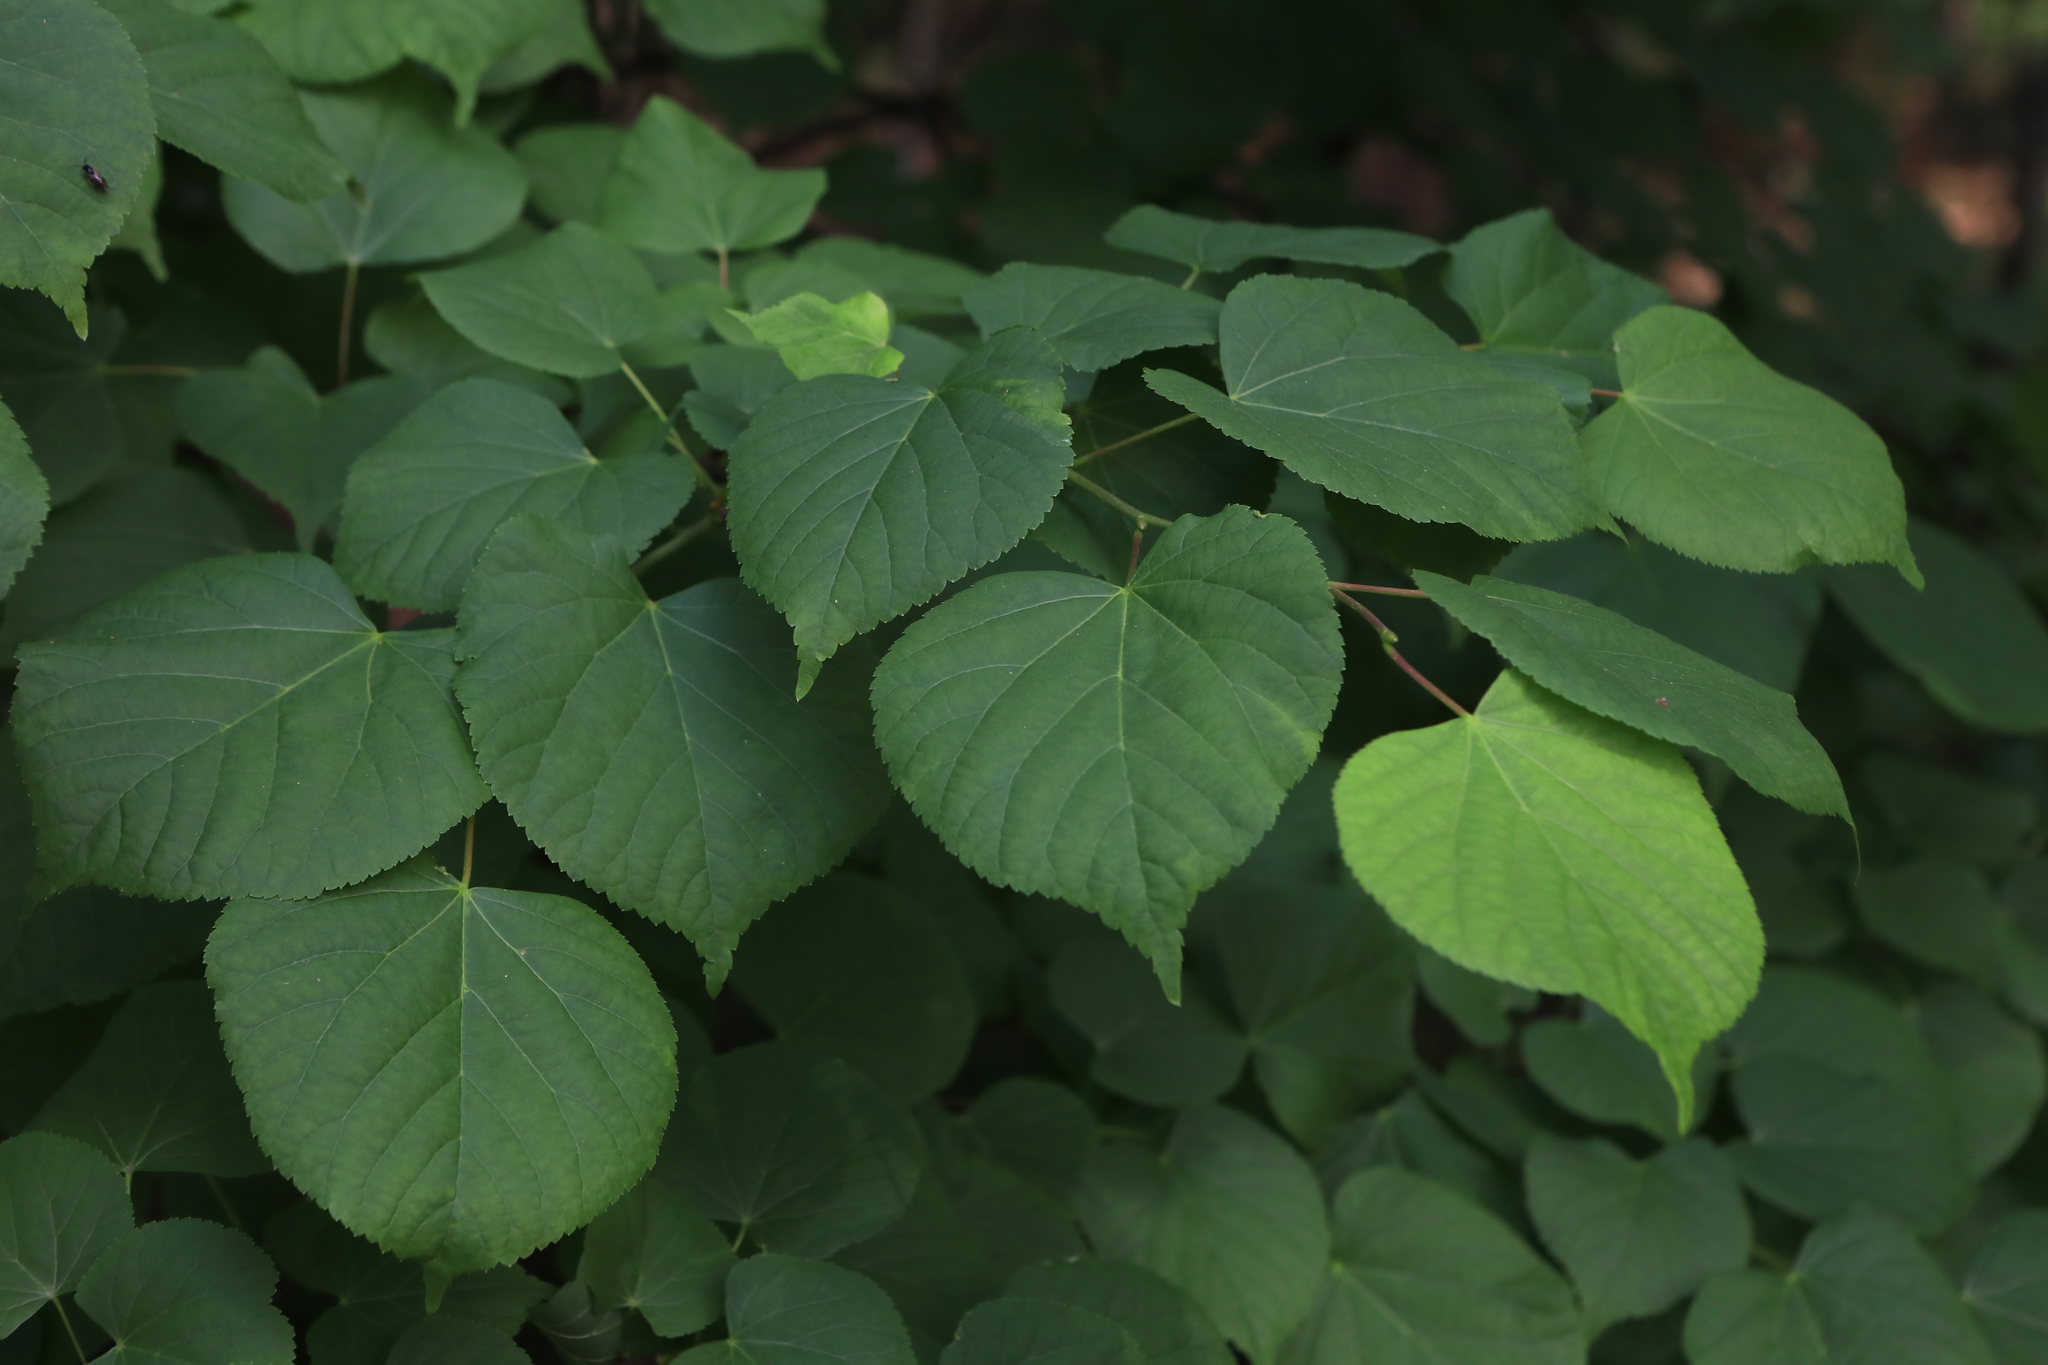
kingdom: Plantae
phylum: Tracheophyta
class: Magnoliopsida
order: Malvales
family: Malvaceae
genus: Tilia
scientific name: Tilia cordata
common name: Small-leaved lime
